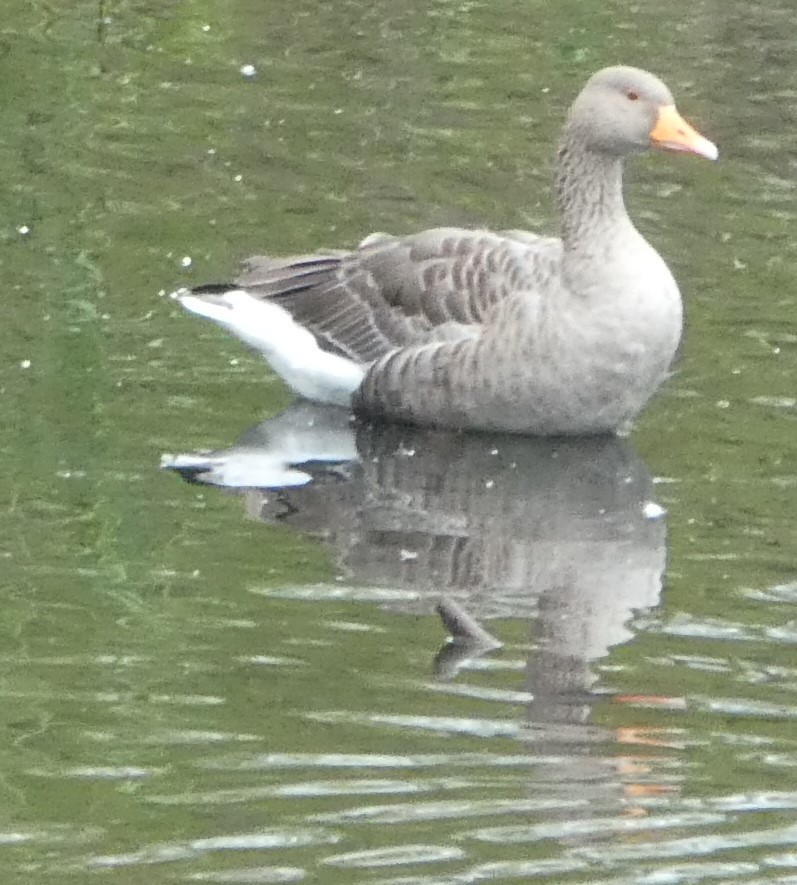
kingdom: Animalia
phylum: Chordata
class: Aves
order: Anseriformes
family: Anatidae
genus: Anser
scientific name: Anser anser
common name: Greylag goose
